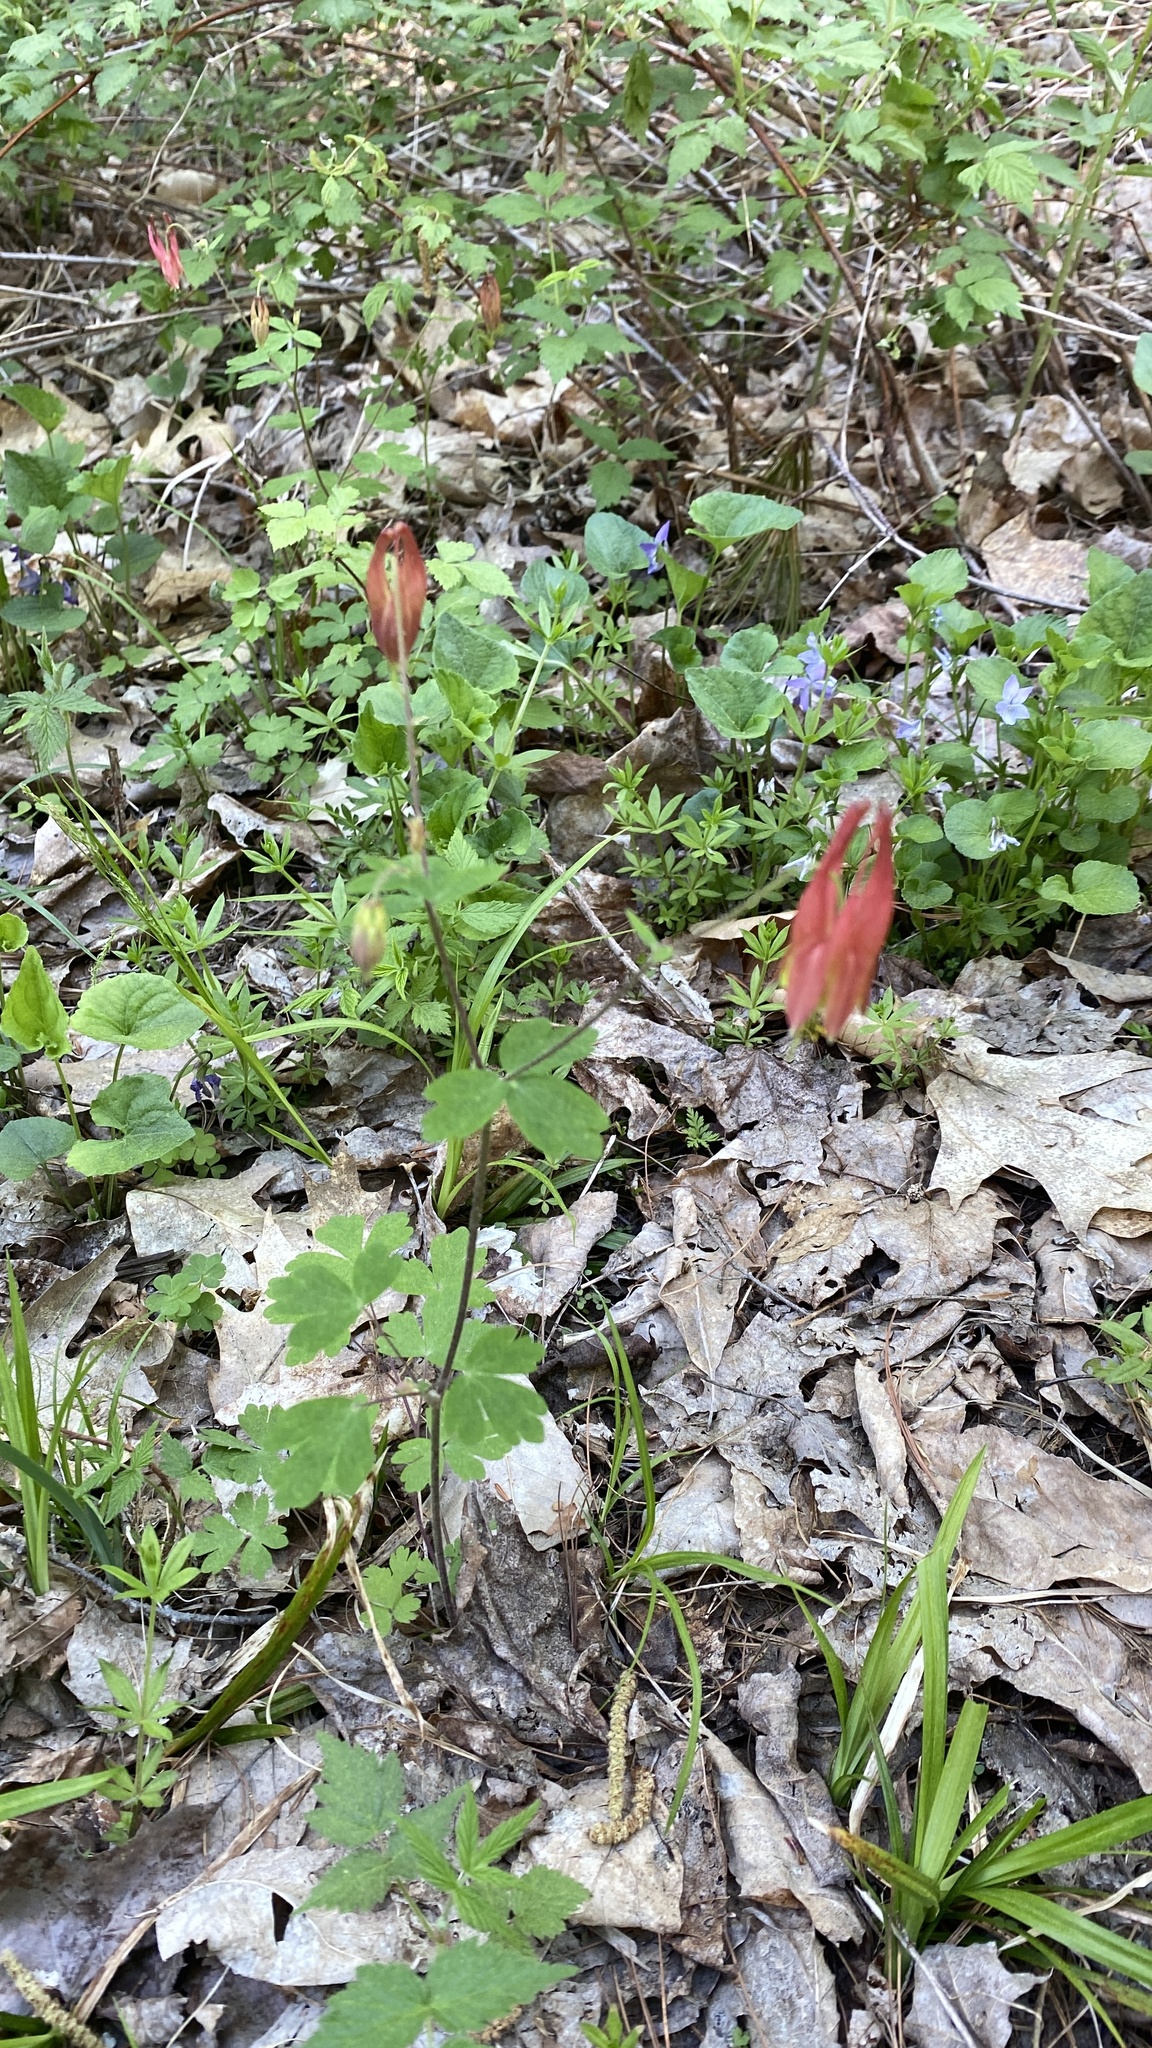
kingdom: Plantae
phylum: Tracheophyta
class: Magnoliopsida
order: Ranunculales
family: Ranunculaceae
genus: Aquilegia
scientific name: Aquilegia canadensis
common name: American columbine
